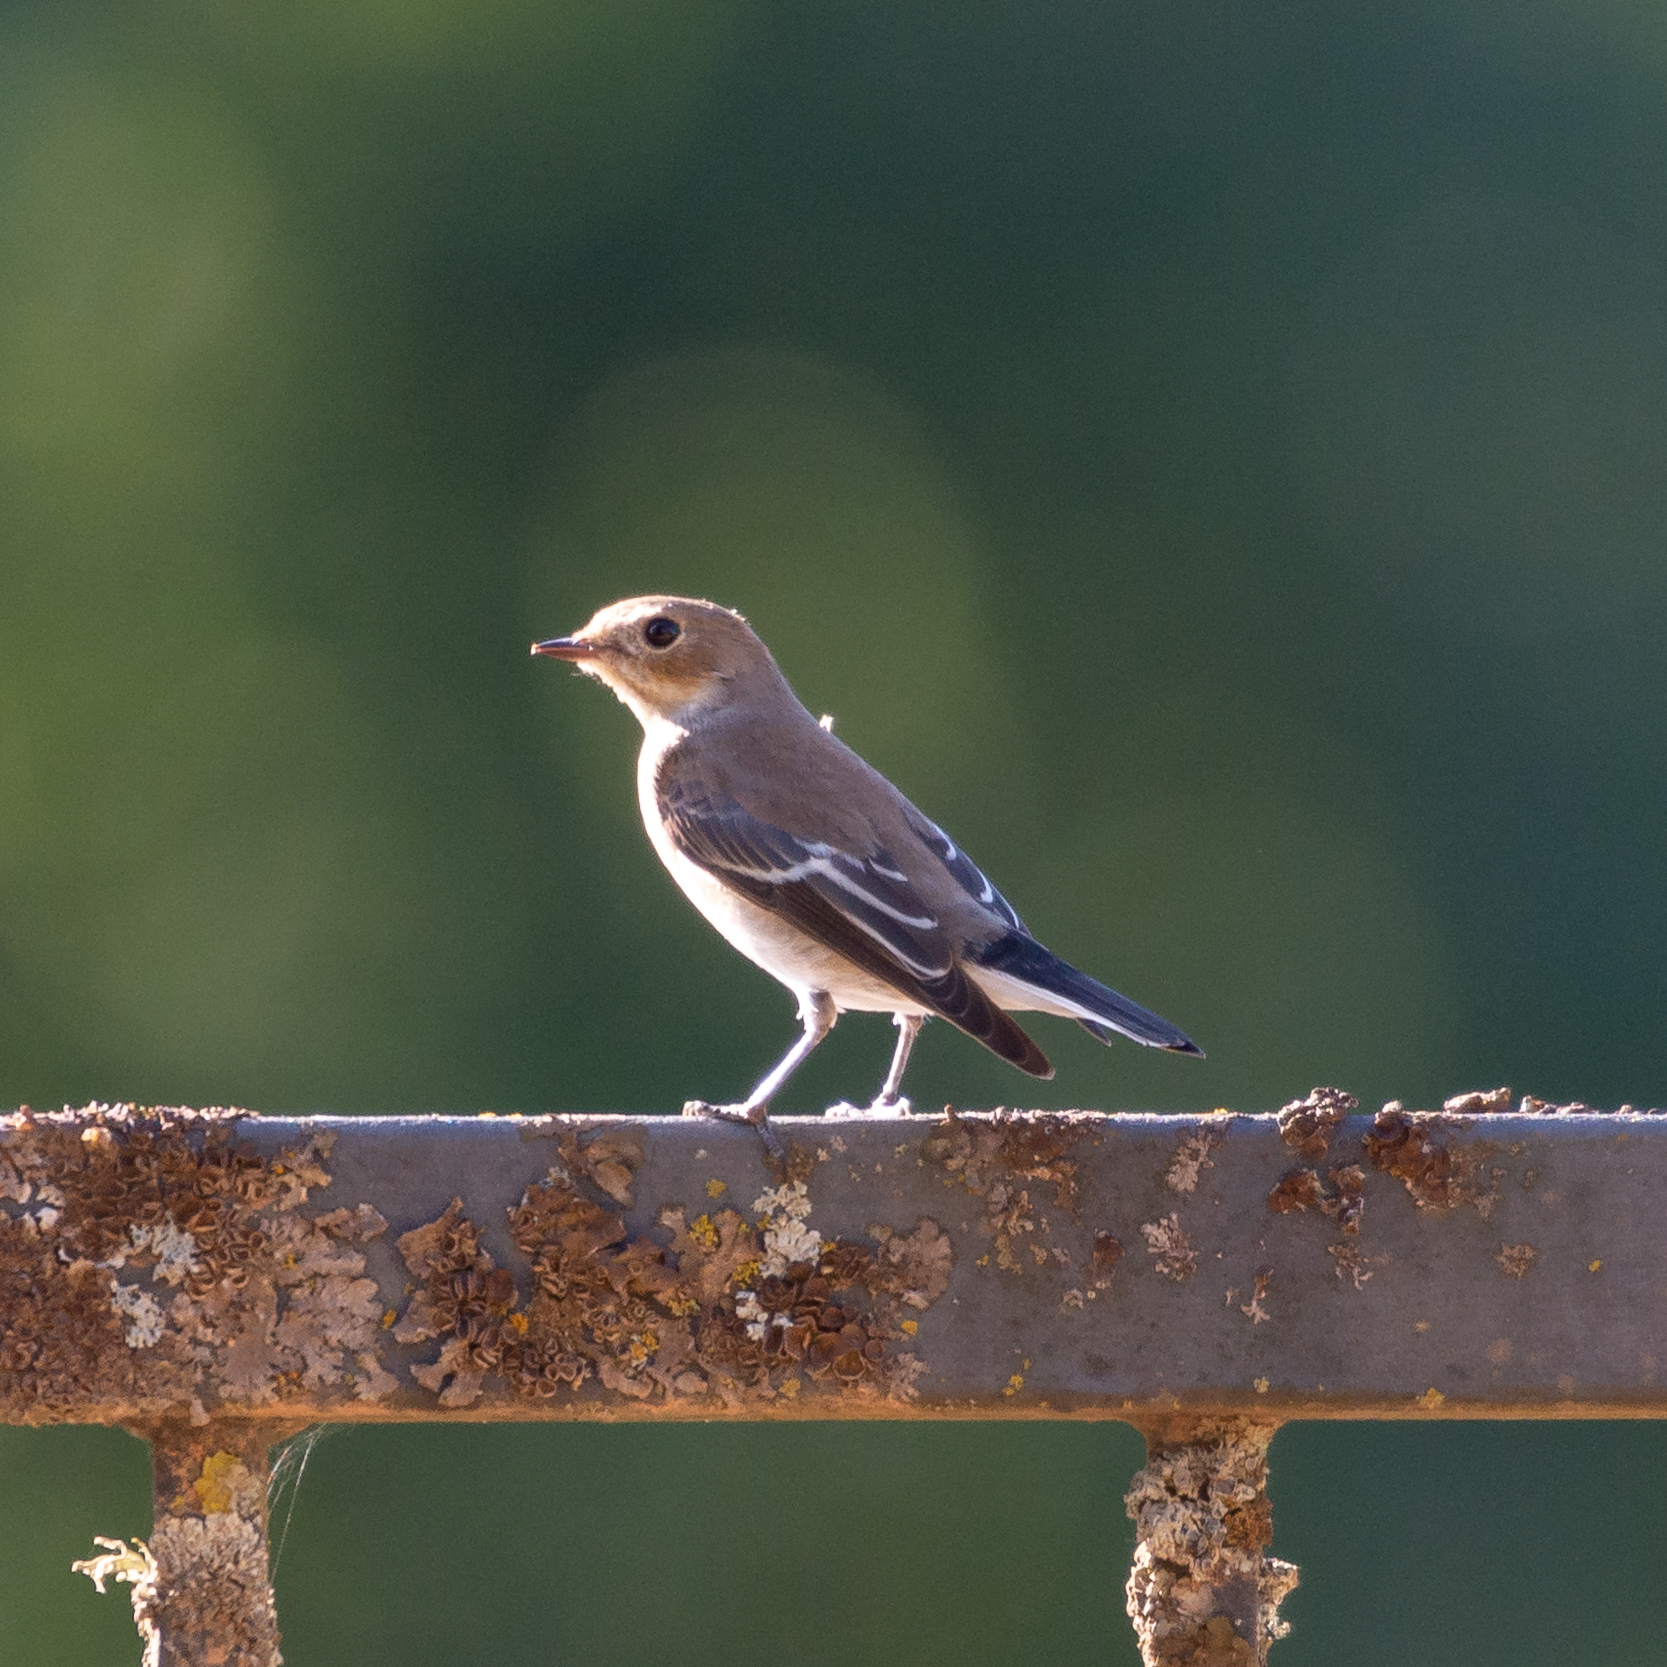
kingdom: Animalia
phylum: Chordata
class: Aves
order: Passeriformes
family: Muscicapidae
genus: Ficedula
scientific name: Ficedula hypoleuca
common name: European pied flycatcher
